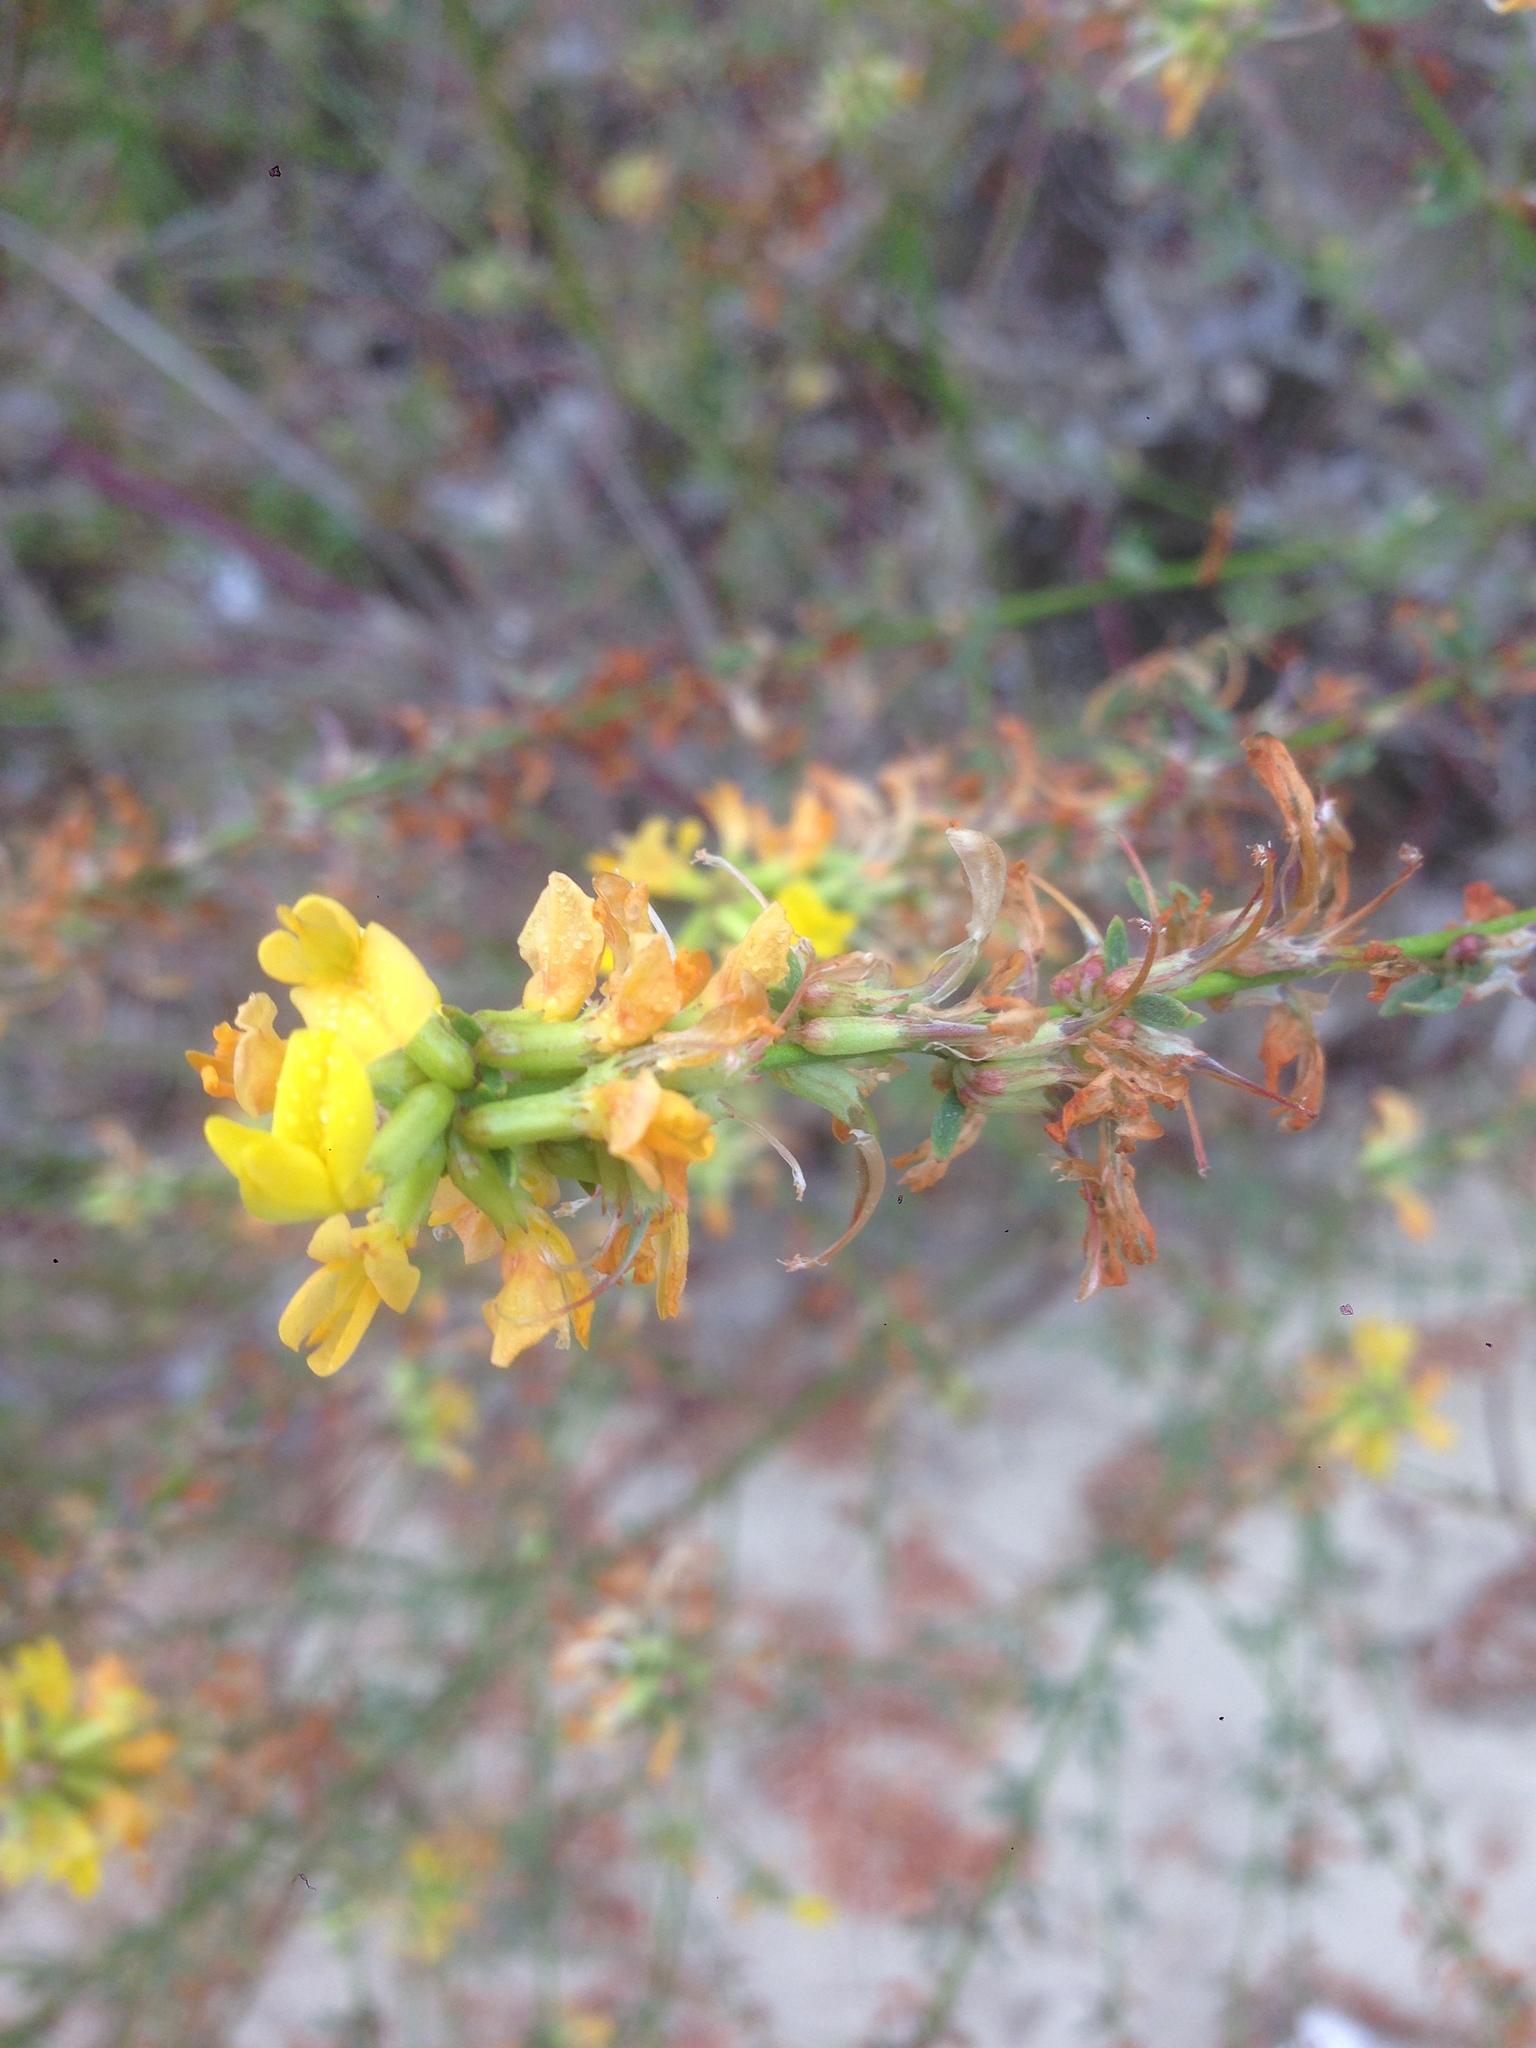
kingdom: Plantae
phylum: Tracheophyta
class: Magnoliopsida
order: Fabales
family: Fabaceae
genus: Acmispon
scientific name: Acmispon glaber
